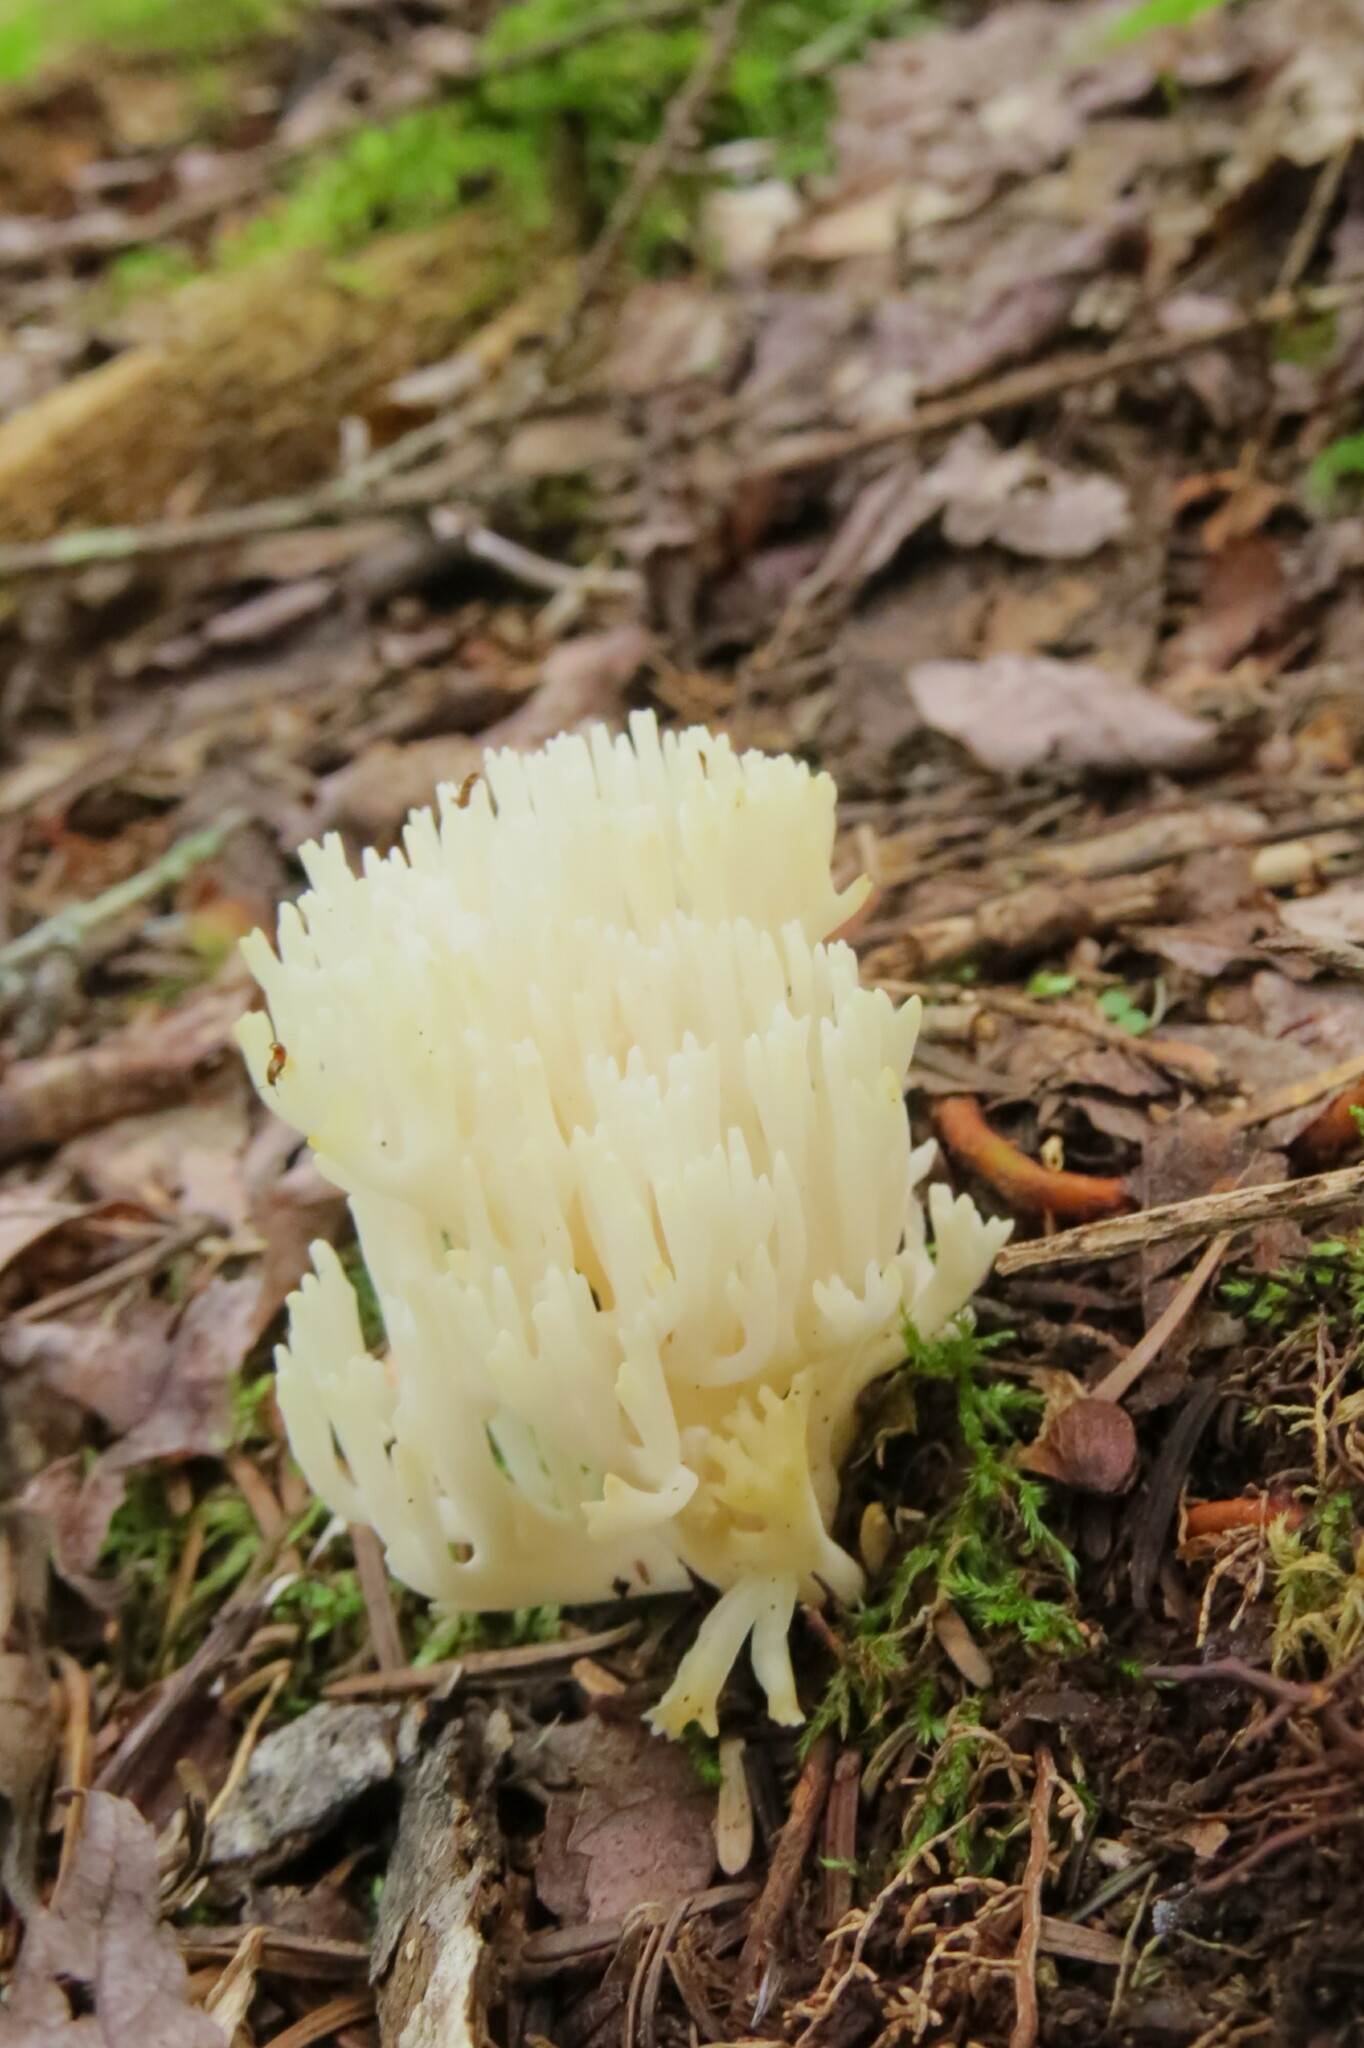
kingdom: Fungi
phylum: Basidiomycota
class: Agaricomycetes
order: Agaricales
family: Clavariaceae
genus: Ramariopsis
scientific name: Ramariopsis kunzei
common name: Ivory coral
